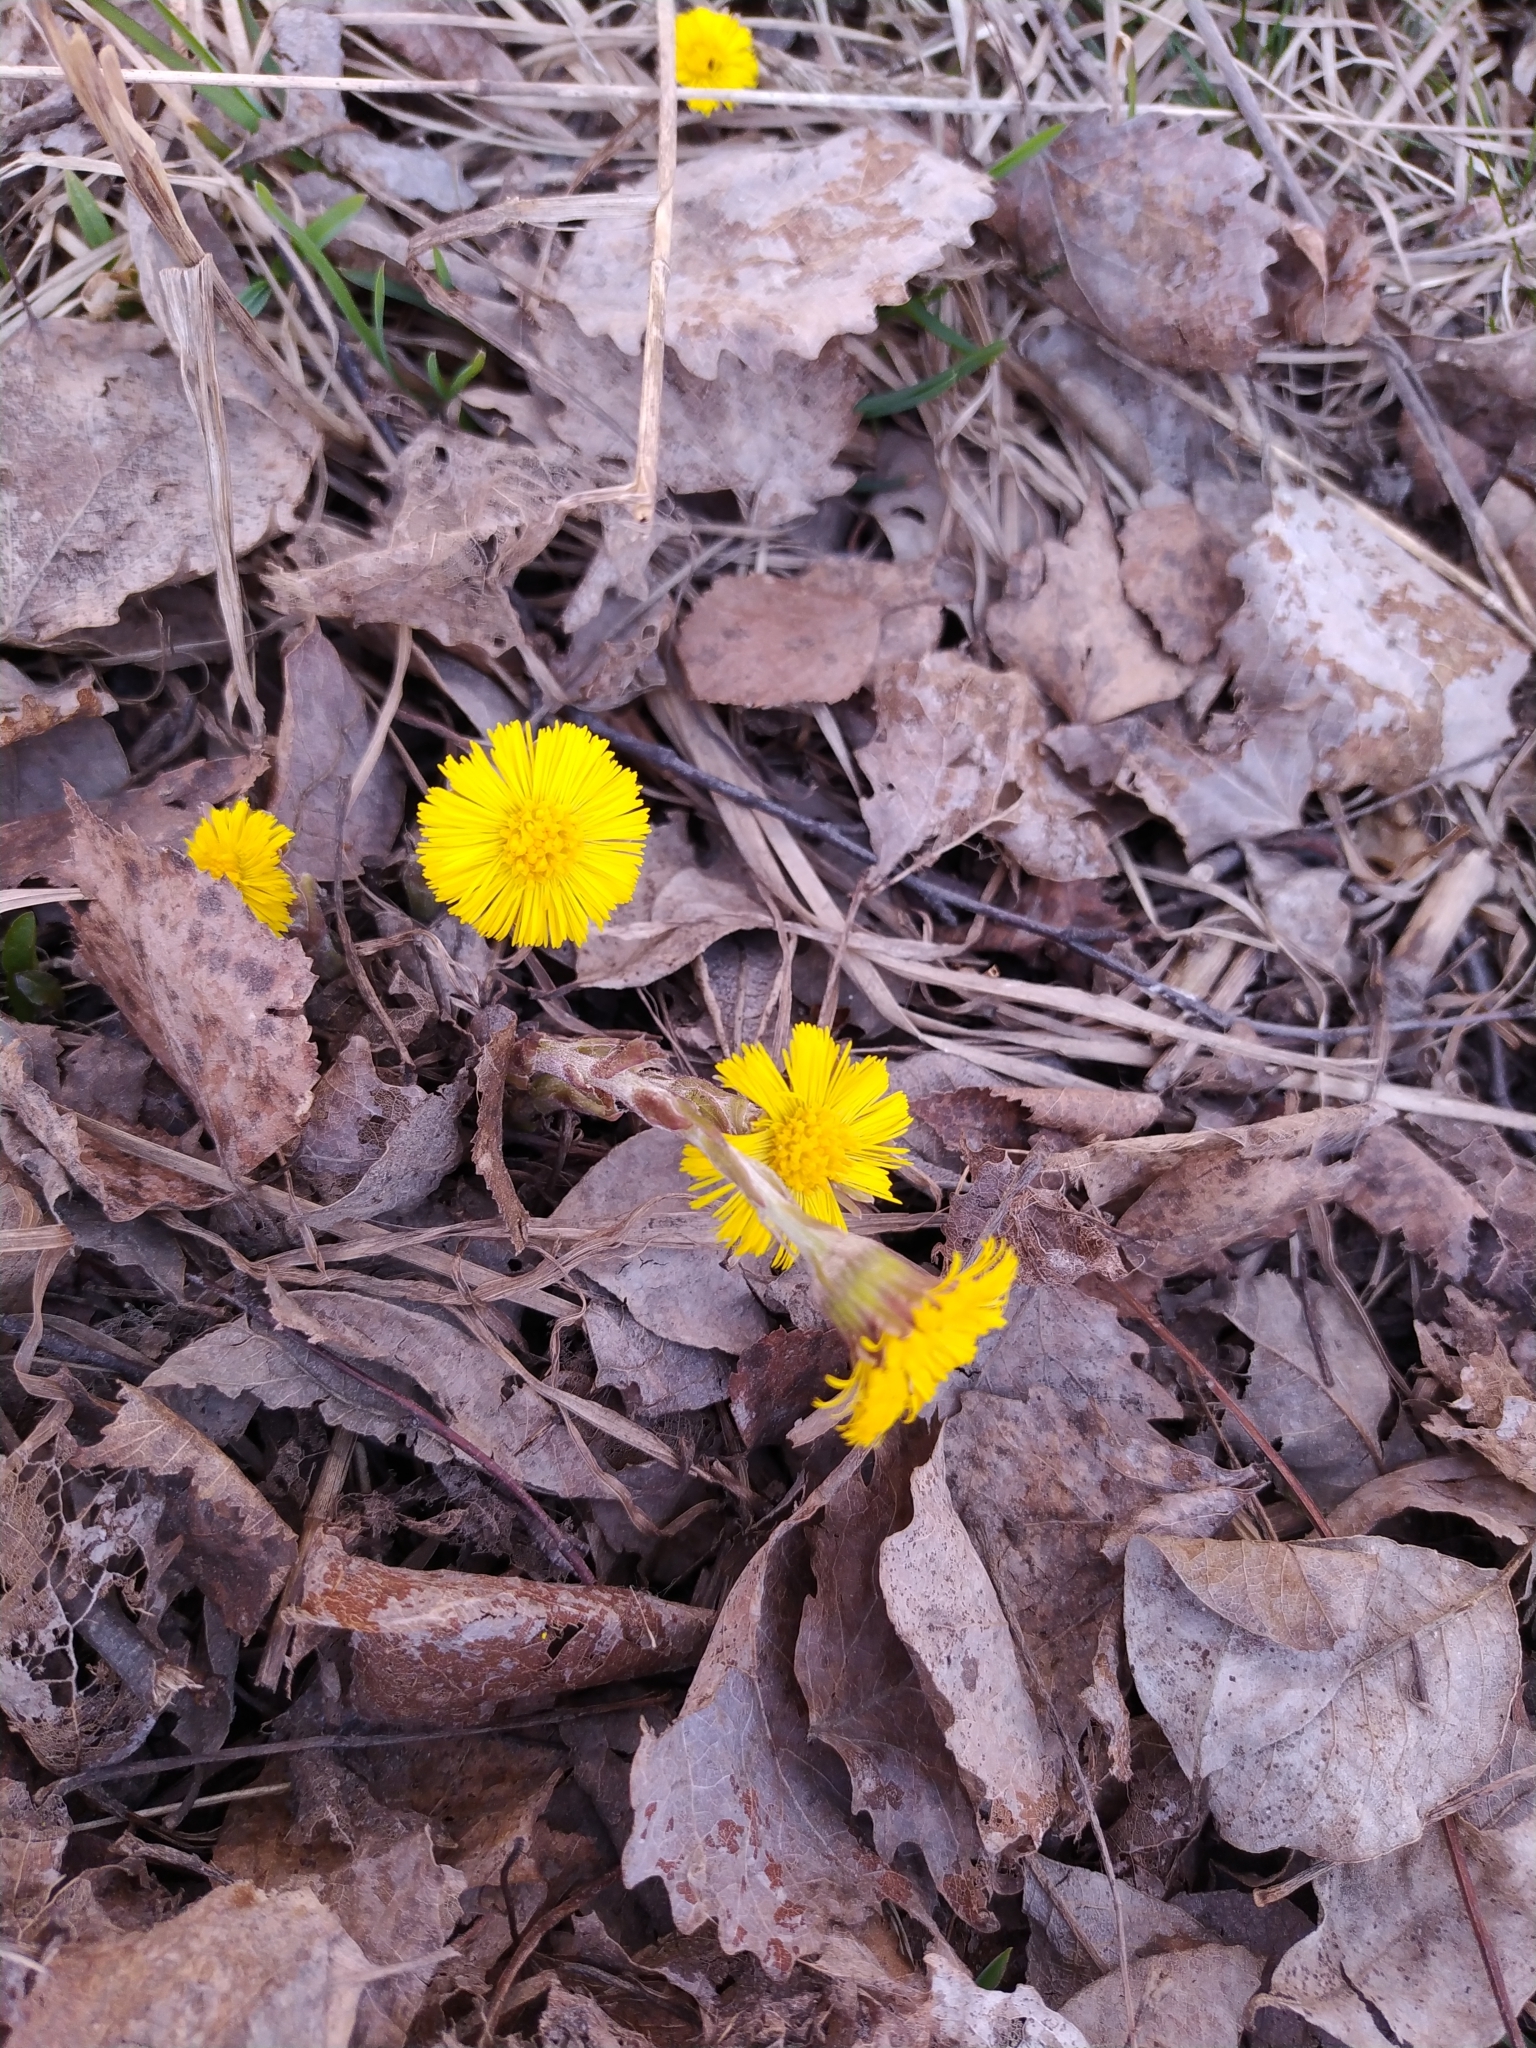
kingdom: Plantae
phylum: Tracheophyta
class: Magnoliopsida
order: Asterales
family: Asteraceae
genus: Tussilago
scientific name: Tussilago farfara
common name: Coltsfoot
